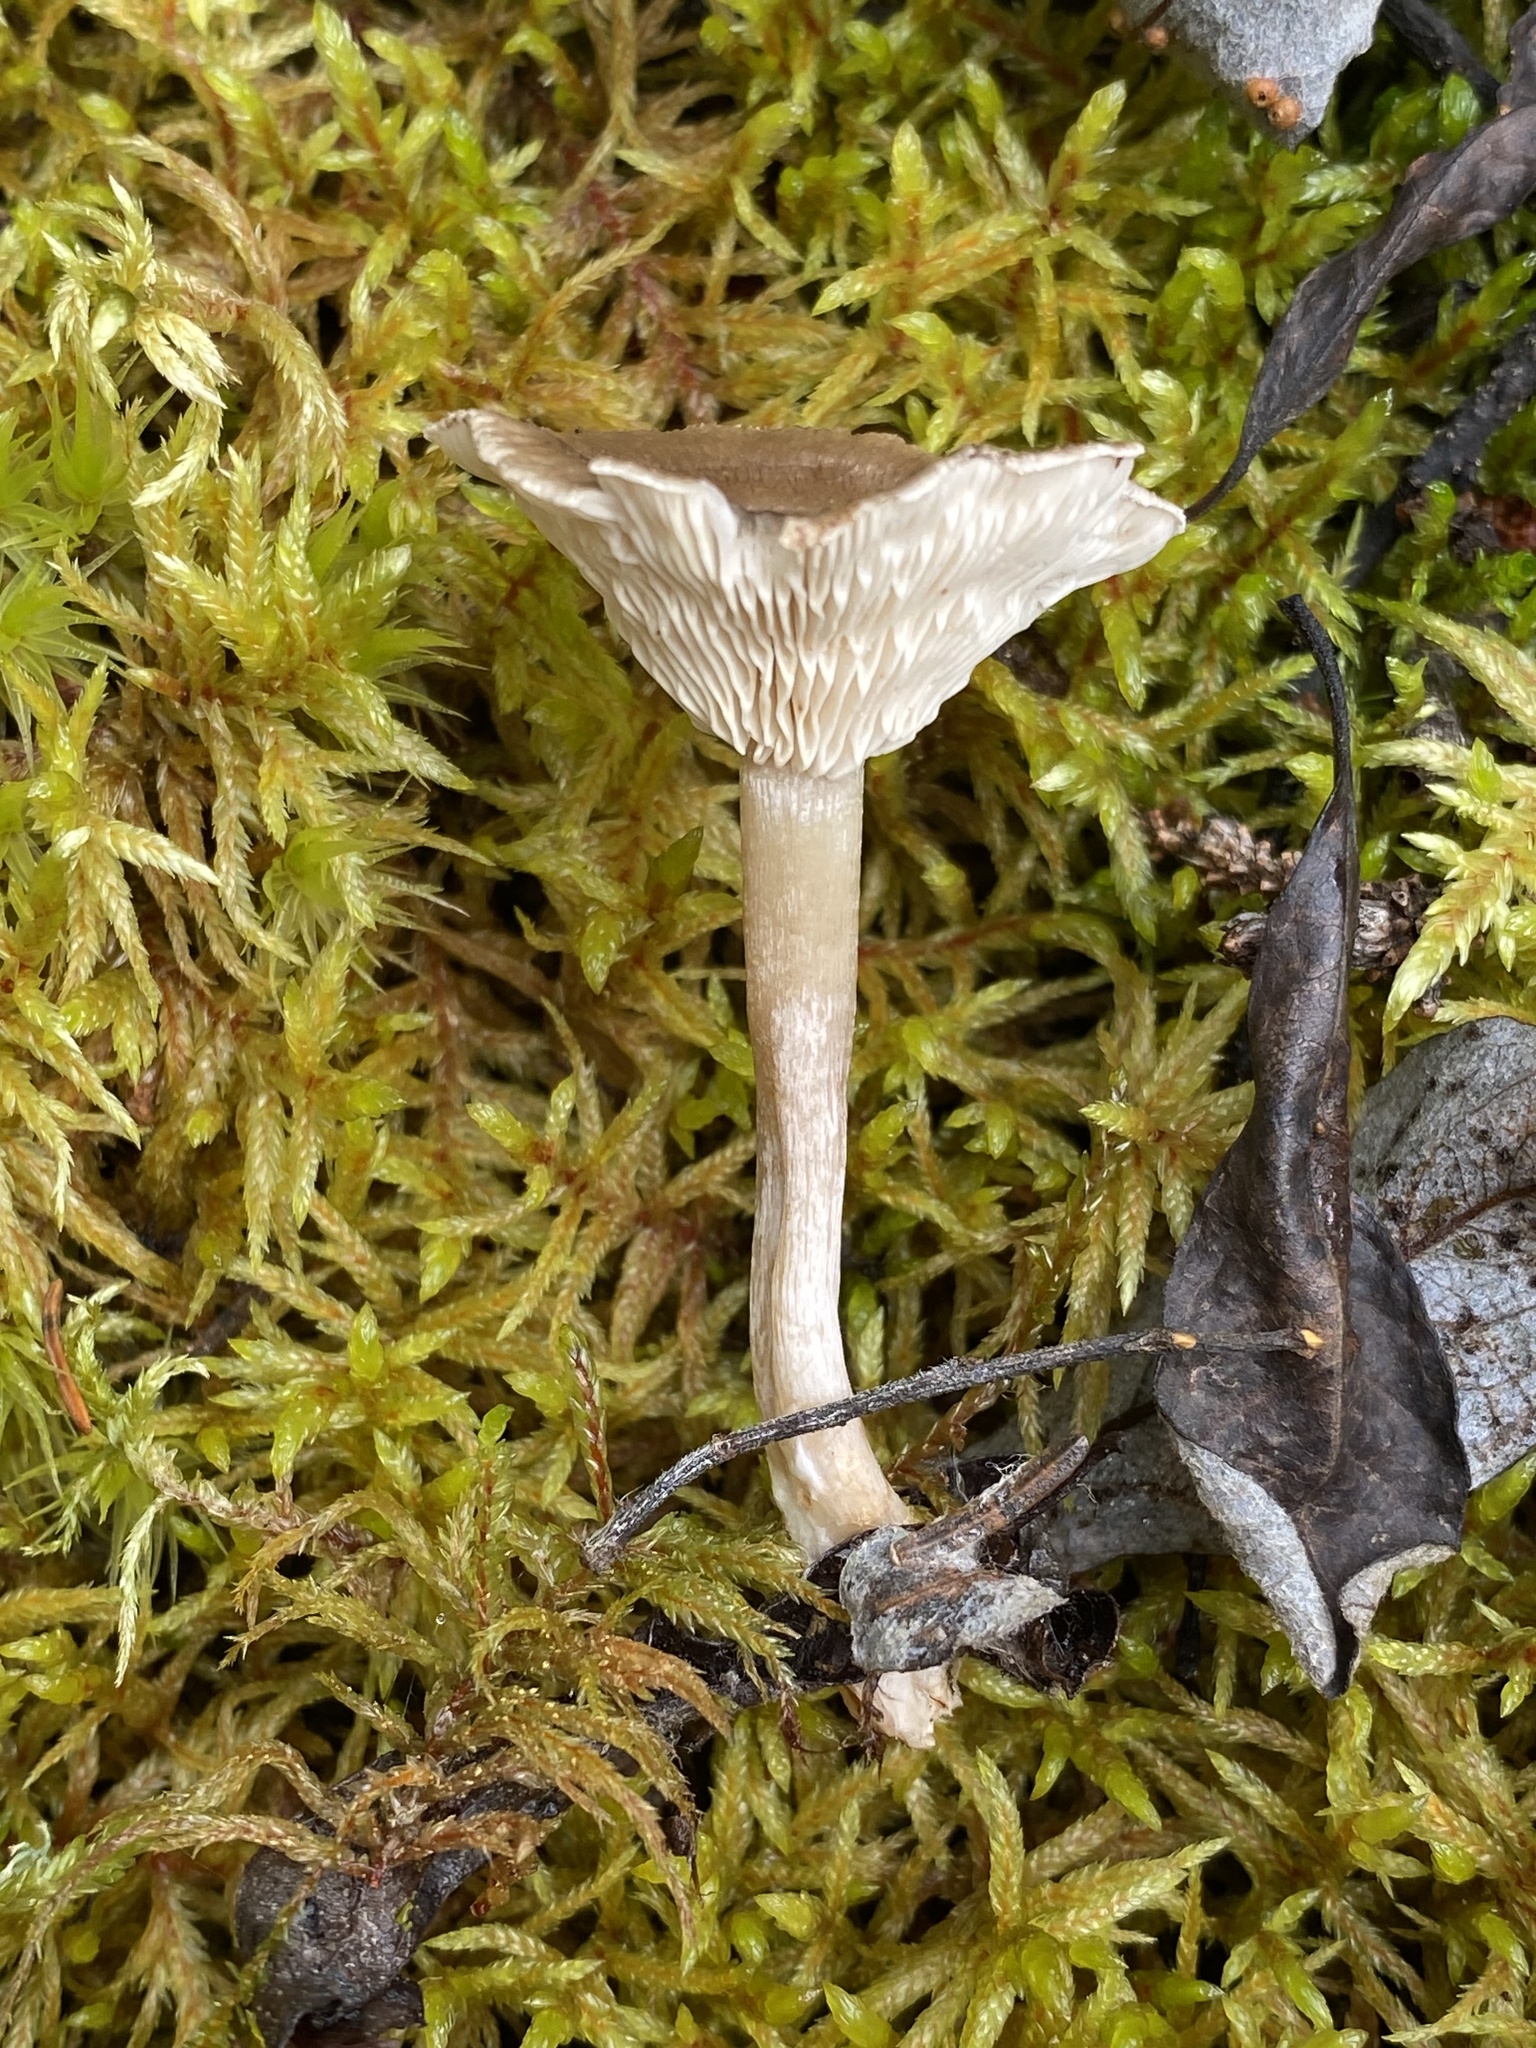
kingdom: Fungi
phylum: Basidiomycota
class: Agaricomycetes
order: Agaricales
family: Hygrophoraceae
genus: Cantharellula
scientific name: Cantharellula umbonata
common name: The humpback
